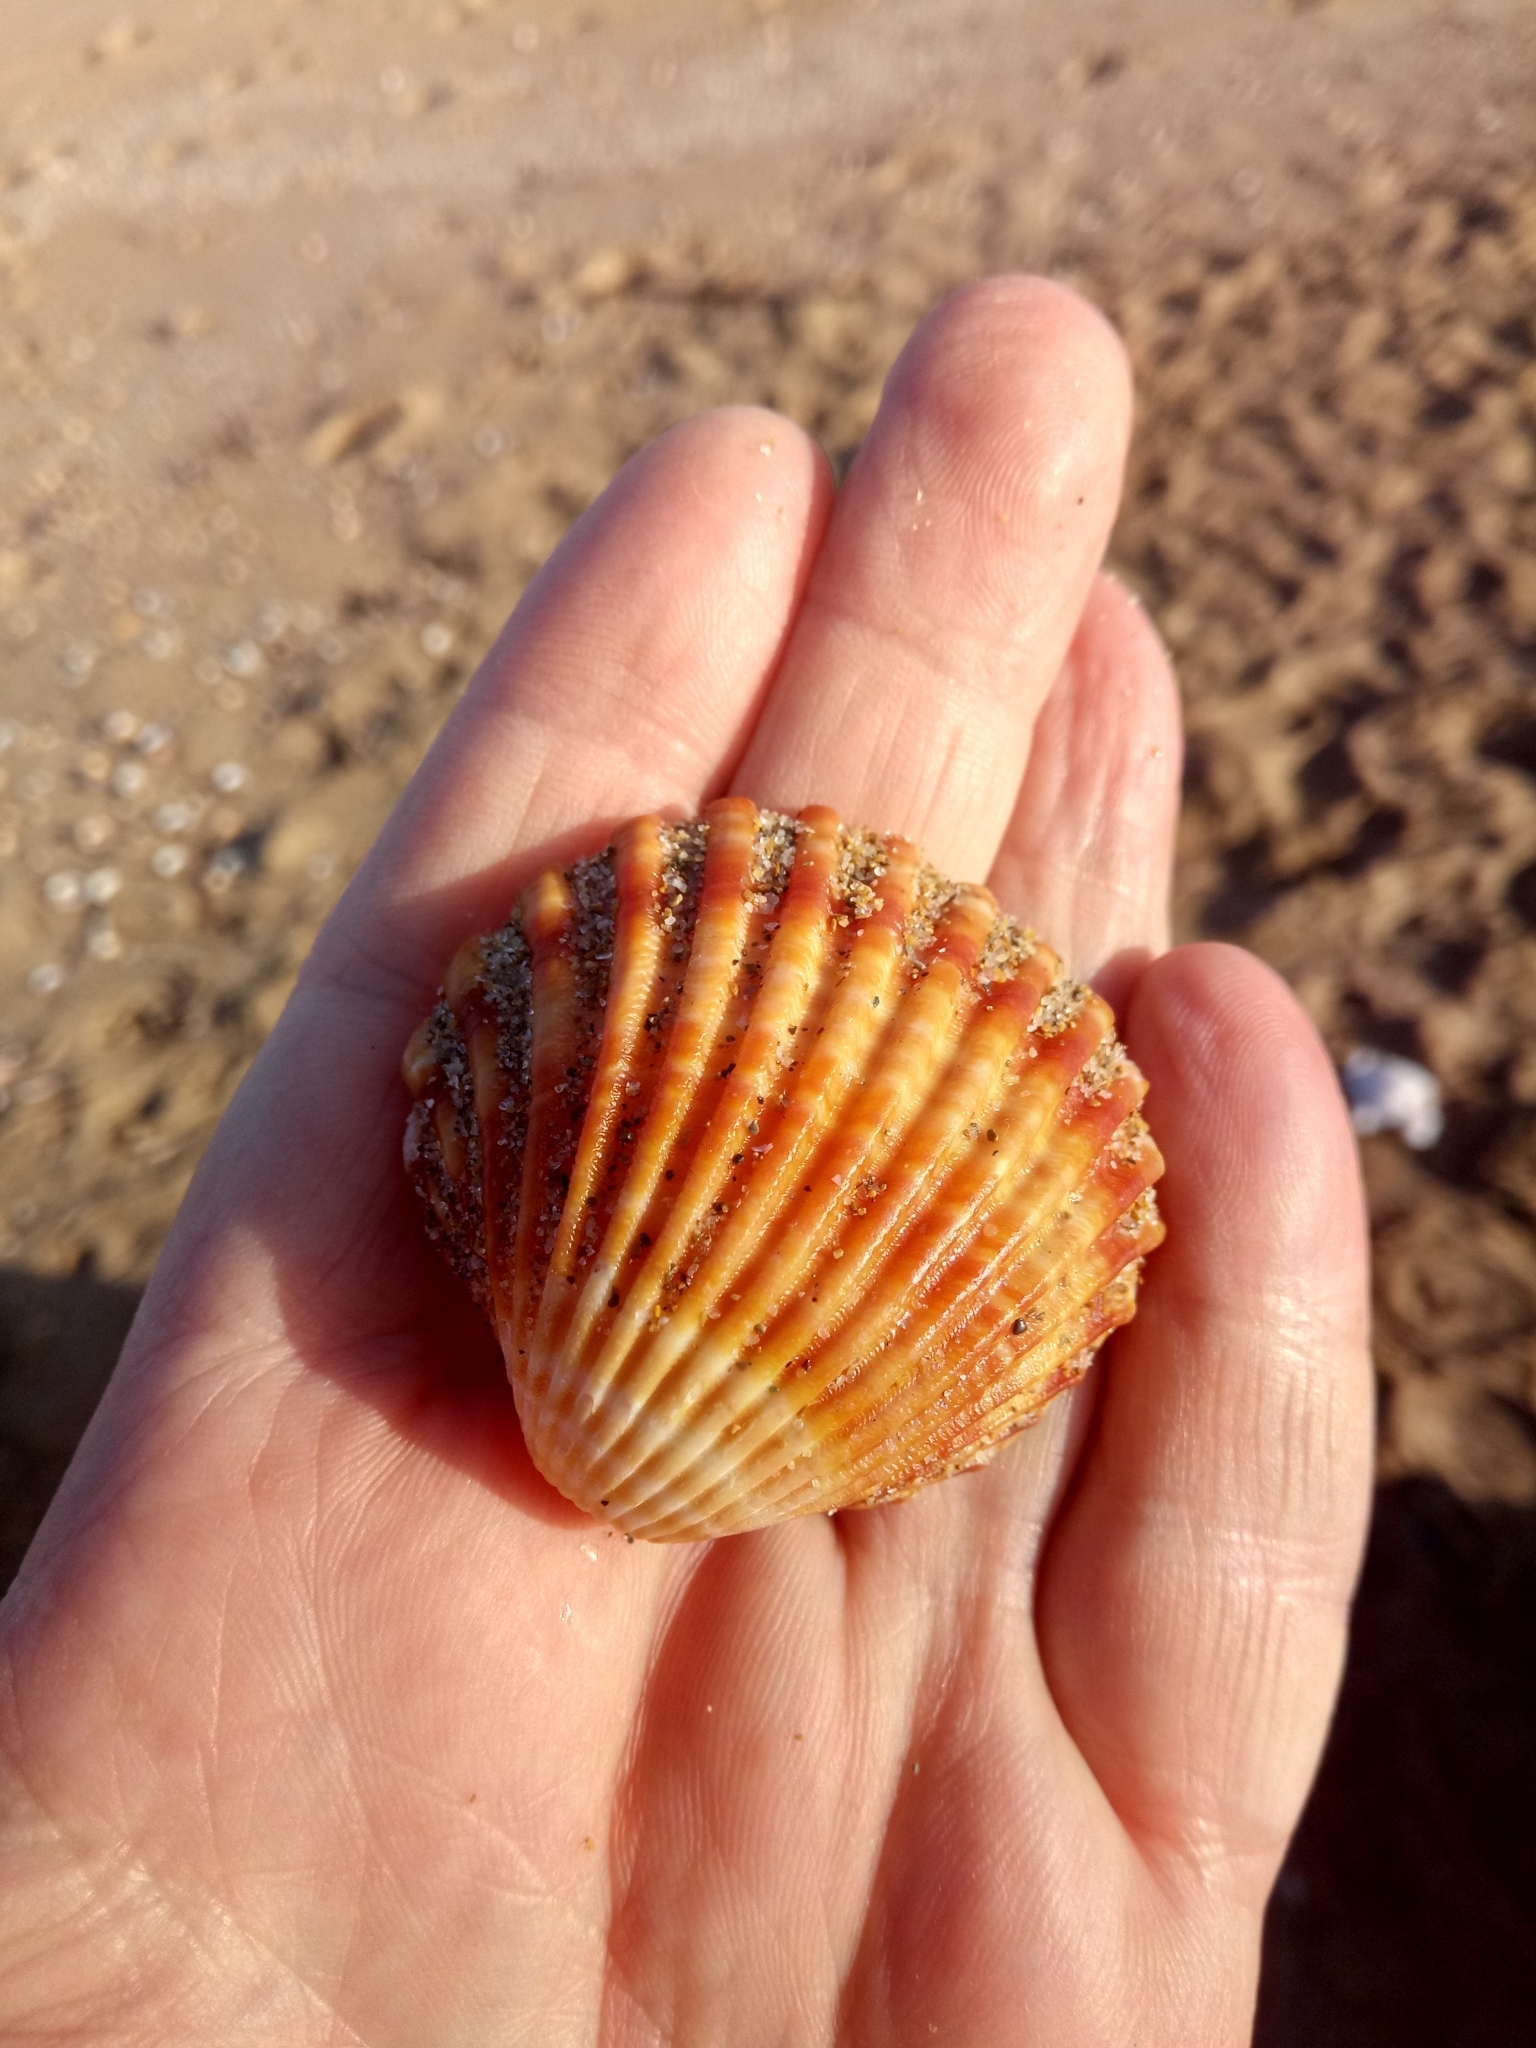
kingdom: Animalia
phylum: Mollusca
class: Bivalvia
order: Cardiida
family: Cardiidae
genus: Acanthocardia
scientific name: Acanthocardia tuberculata
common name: Rough cockle
